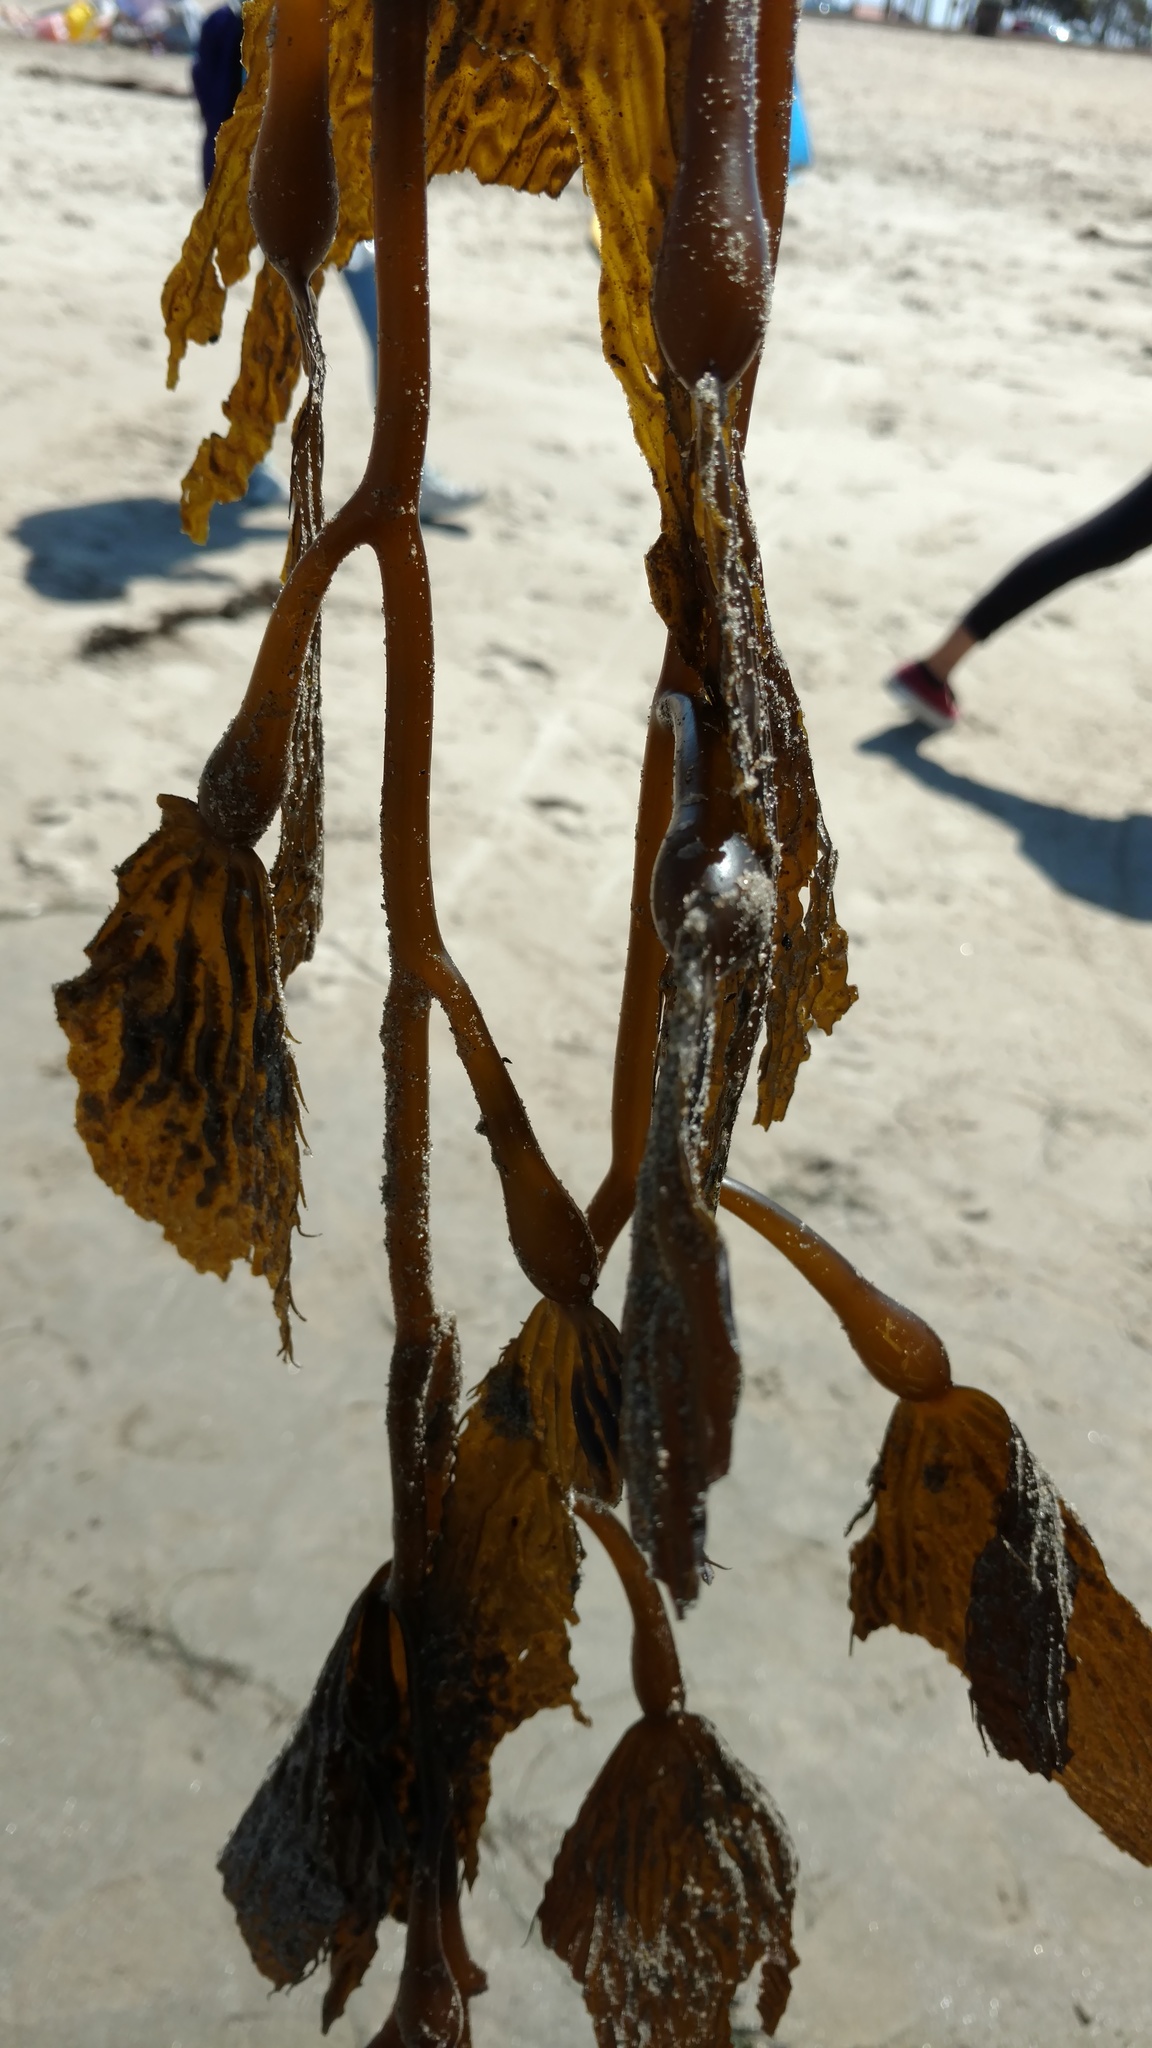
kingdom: Chromista
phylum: Ochrophyta
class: Phaeophyceae
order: Laminariales
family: Laminariaceae
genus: Macrocystis
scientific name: Macrocystis pyrifera
